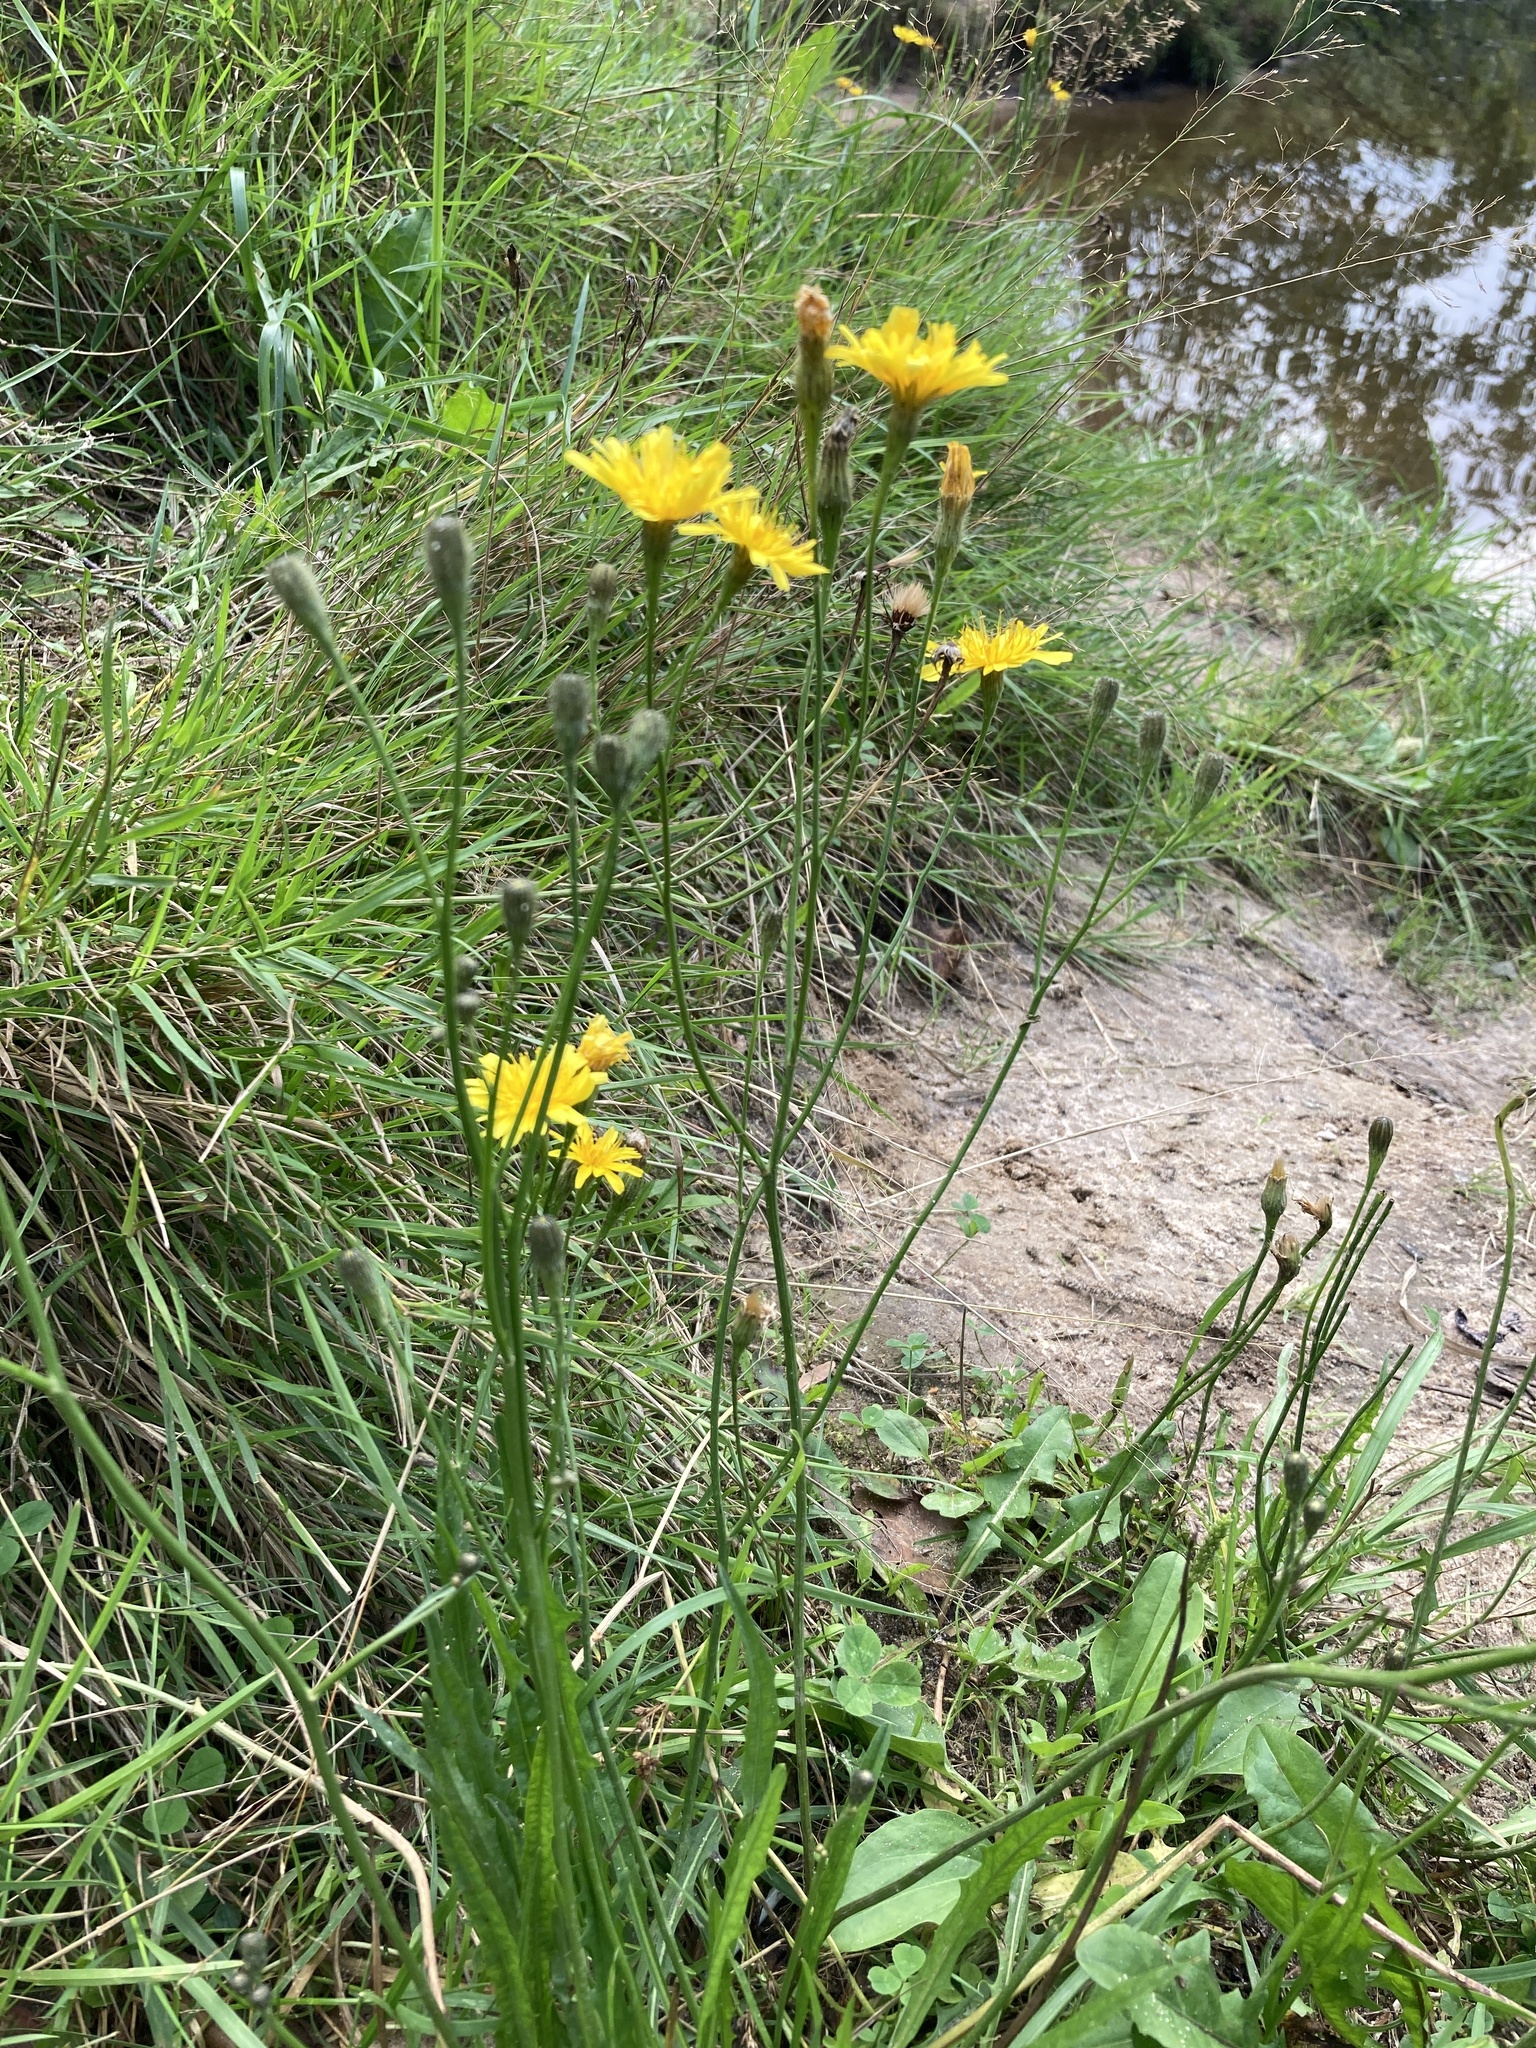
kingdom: Plantae
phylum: Tracheophyta
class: Magnoliopsida
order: Asterales
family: Asteraceae
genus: Scorzoneroides
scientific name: Scorzoneroides autumnalis
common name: Autumn hawkbit
